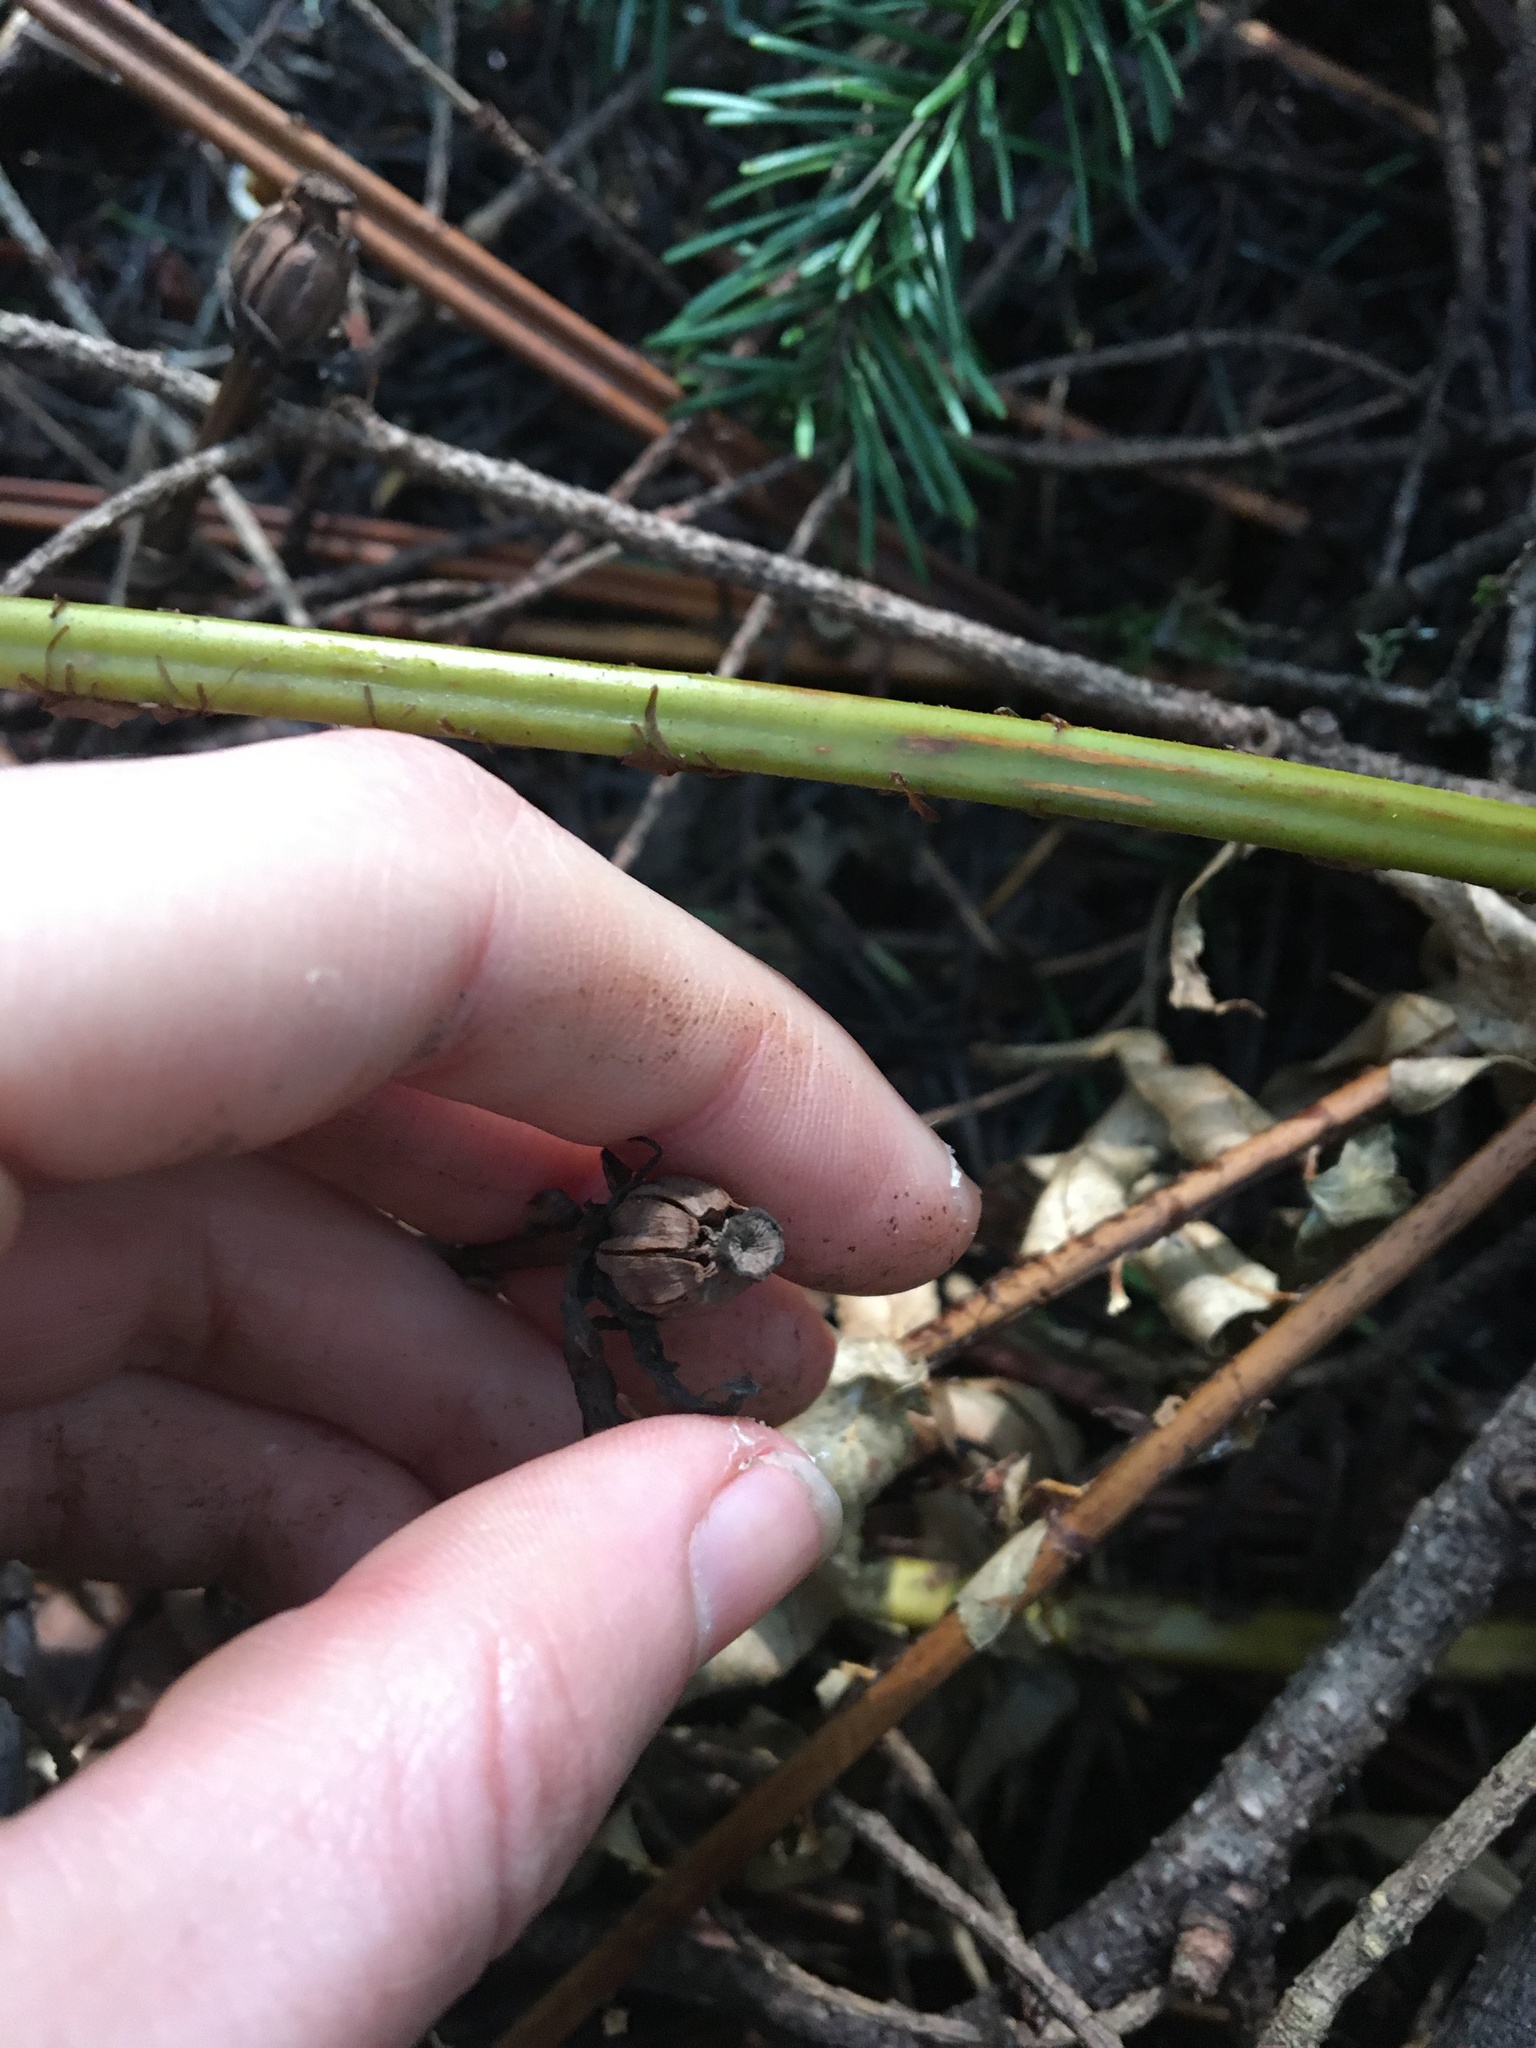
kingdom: Plantae
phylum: Tracheophyta
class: Magnoliopsida
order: Ericales
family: Ericaceae
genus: Monotropa
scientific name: Monotropa uniflora
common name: Convulsion root
